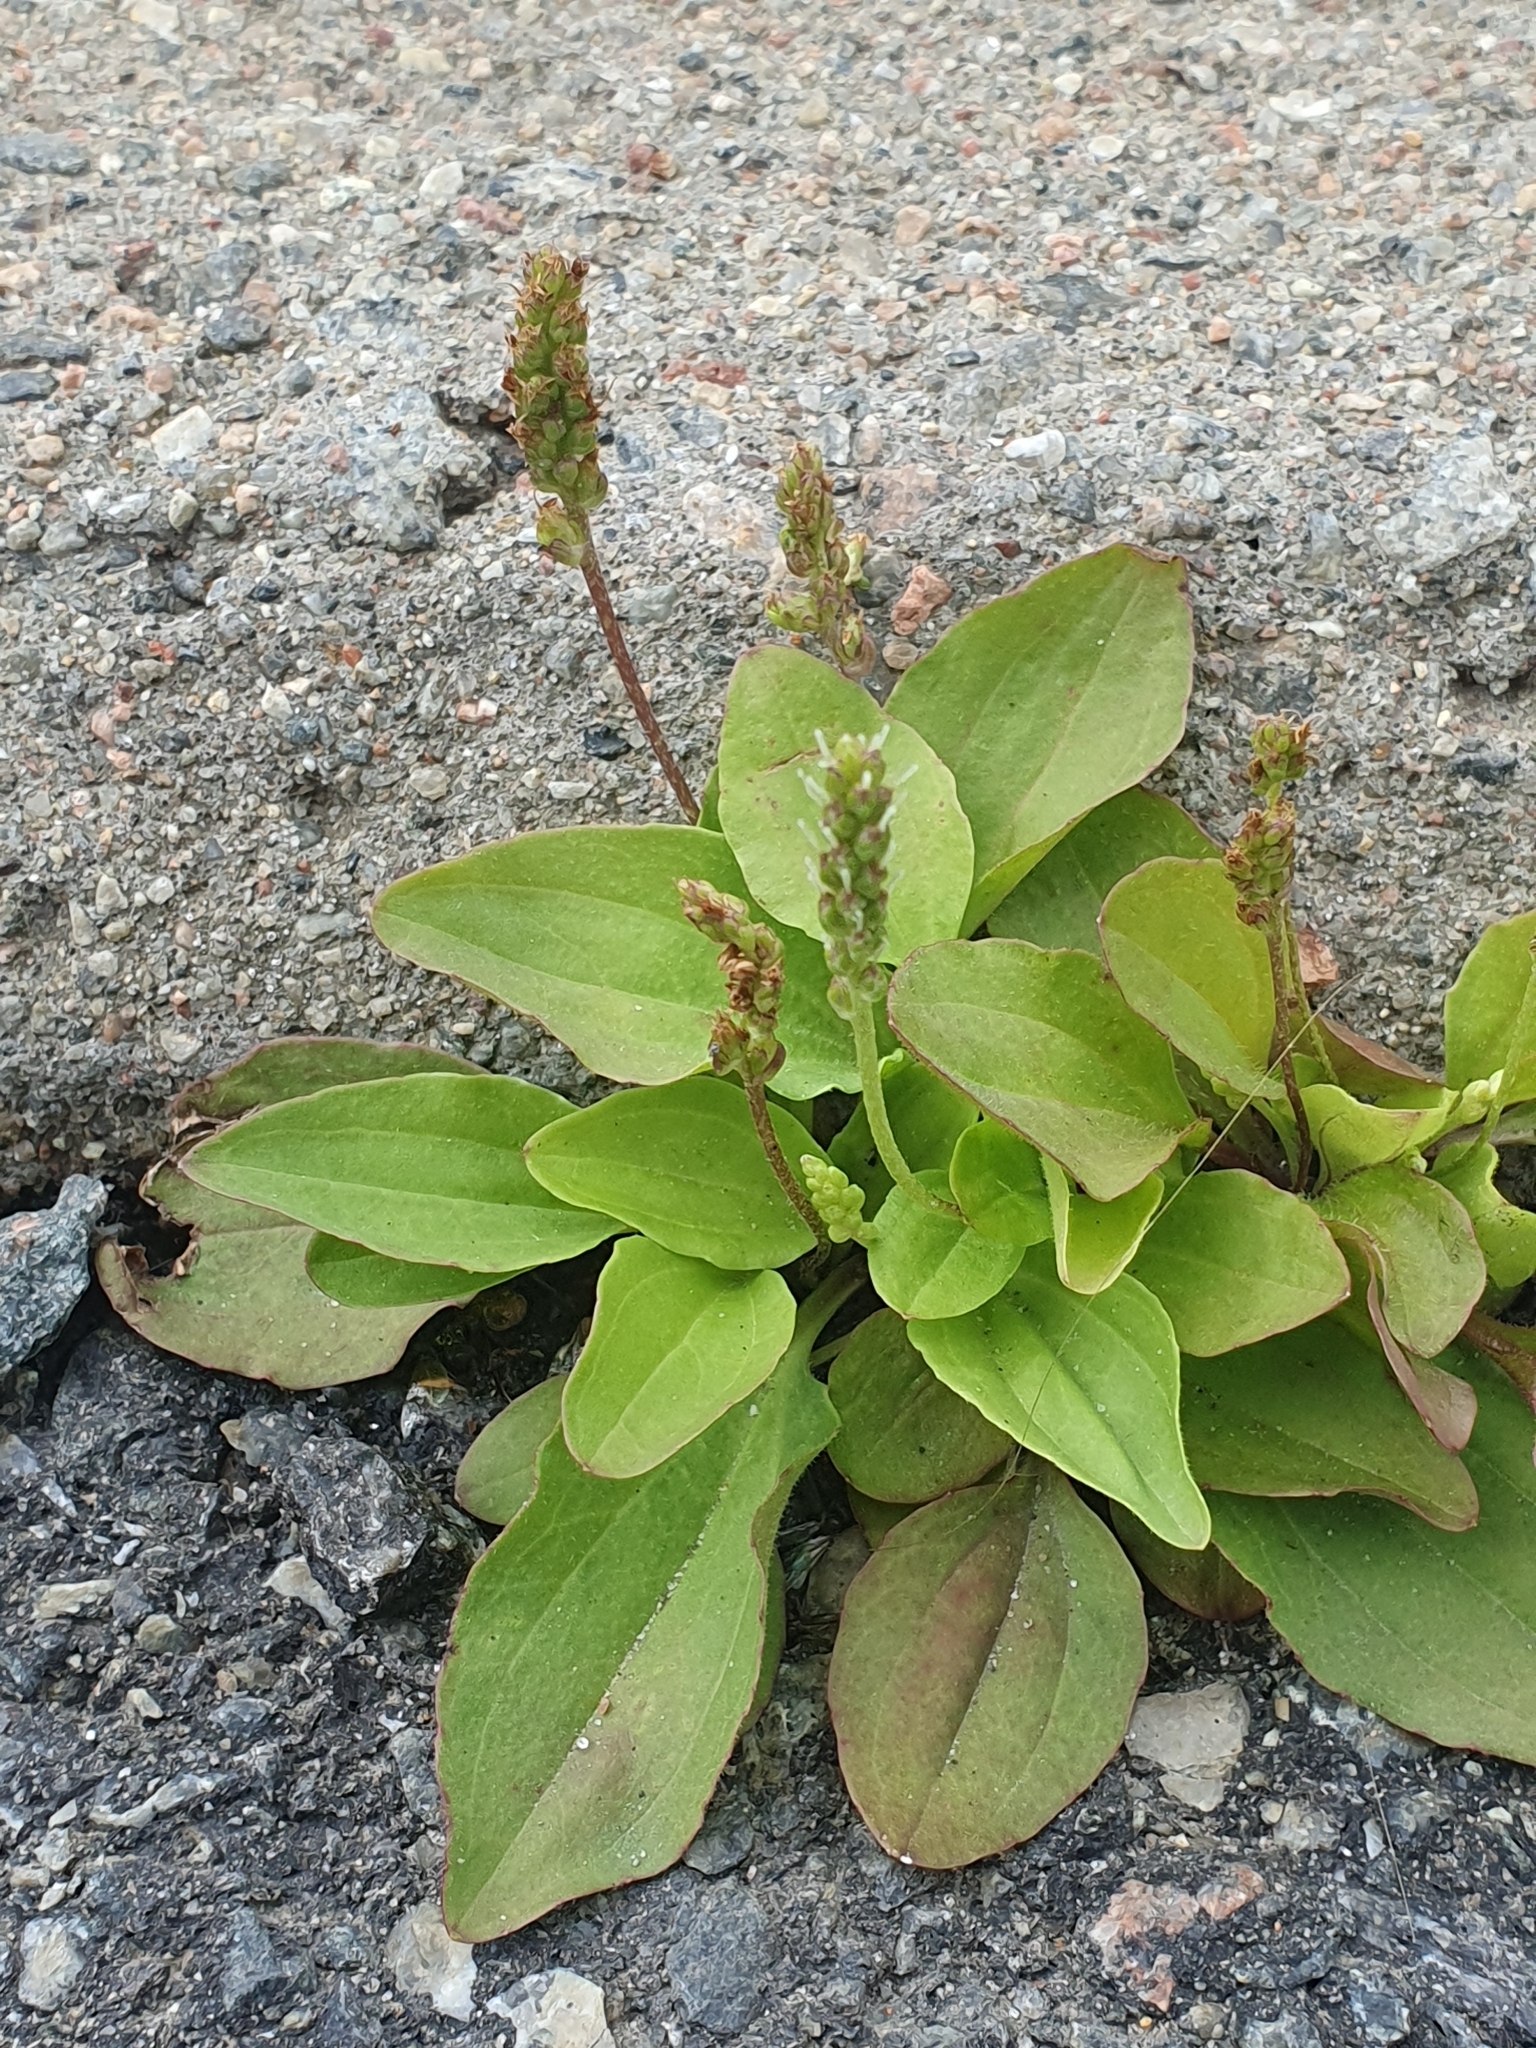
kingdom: Plantae
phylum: Tracheophyta
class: Magnoliopsida
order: Lamiales
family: Plantaginaceae
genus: Plantago
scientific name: Plantago major
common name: Common plantain
